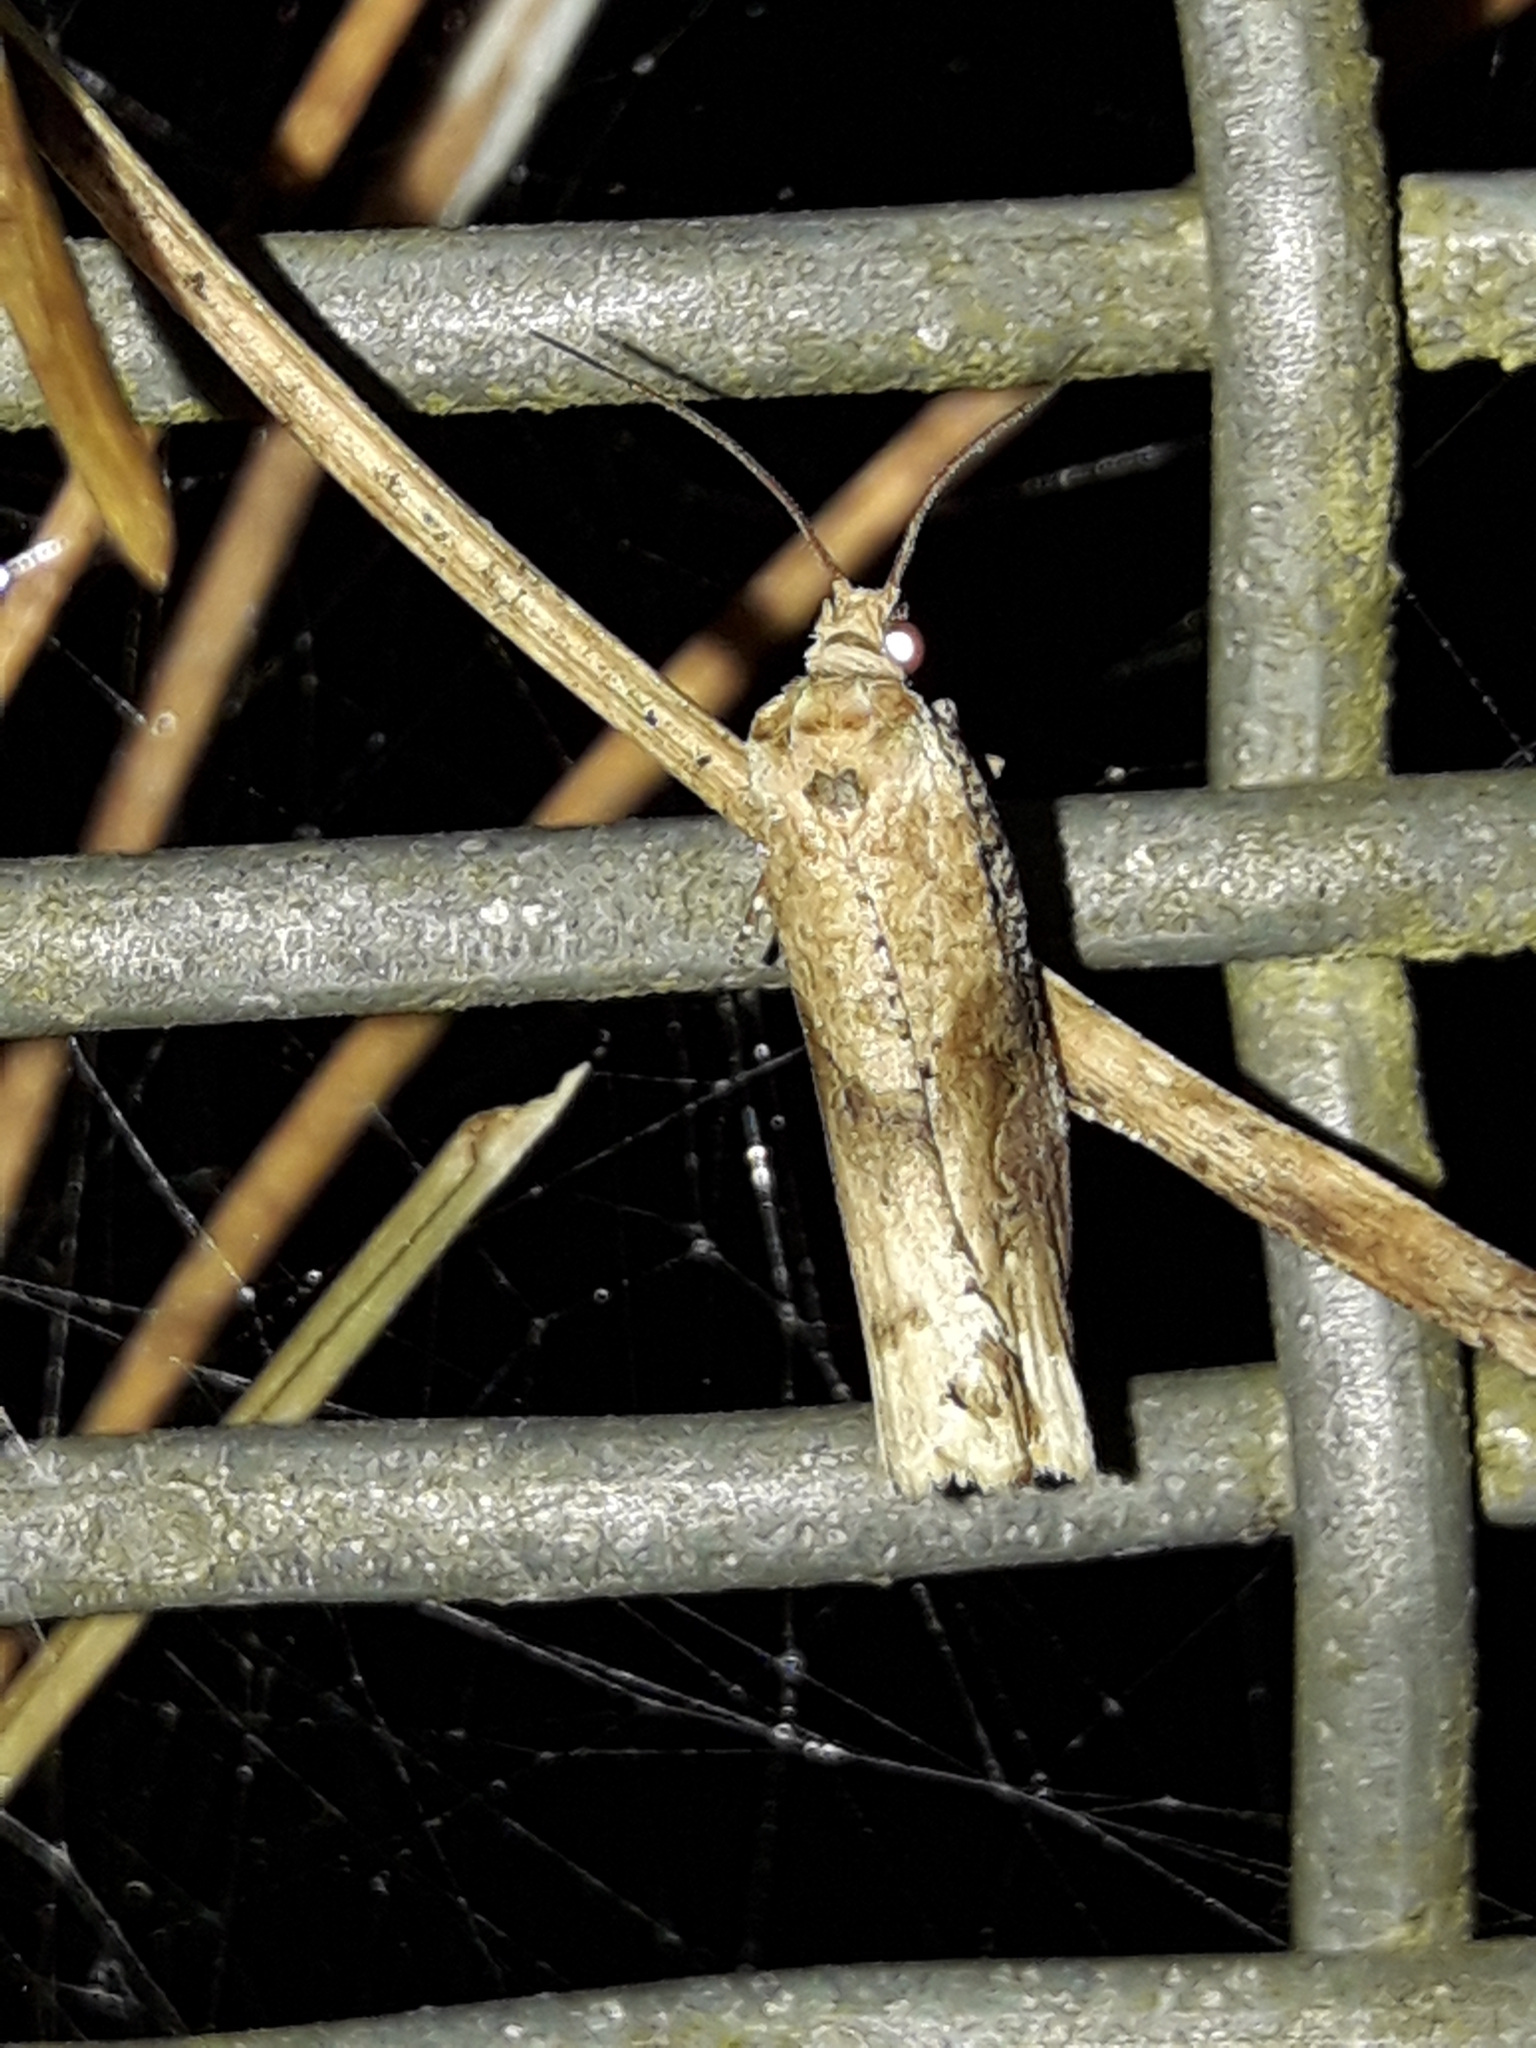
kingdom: Animalia
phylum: Arthropoda
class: Insecta
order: Lepidoptera
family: Tortricidae
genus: Epalxiphora
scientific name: Epalxiphora axenana
